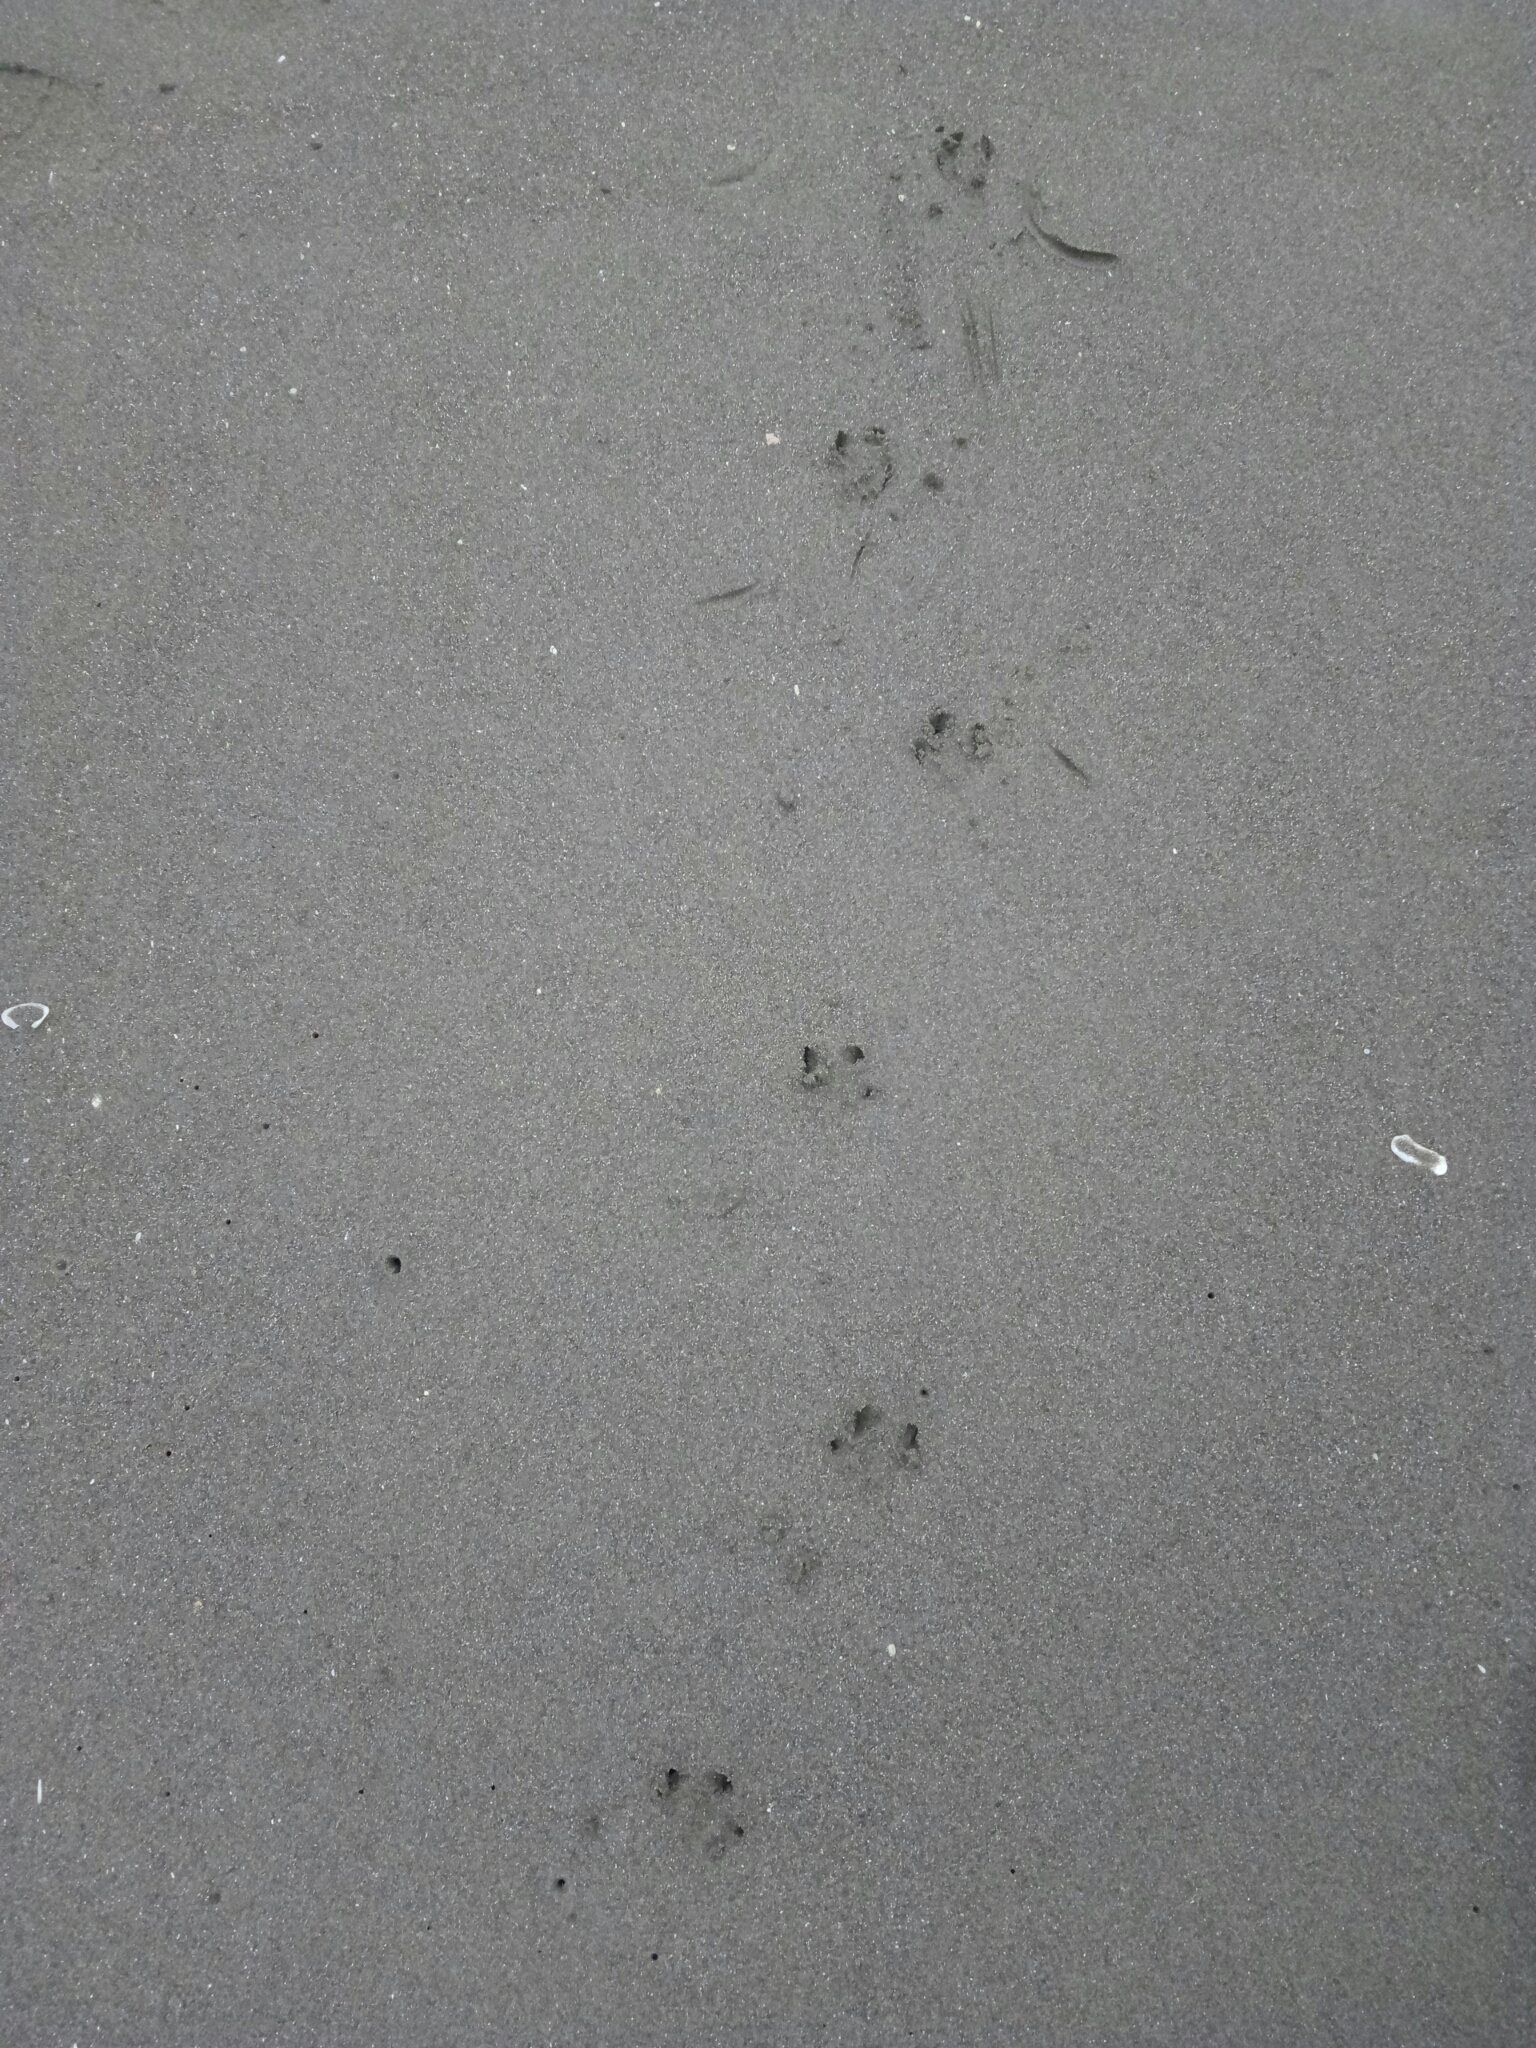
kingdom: Animalia
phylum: Chordata
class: Aves
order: Sphenisciformes
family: Spheniscidae
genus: Eudyptula
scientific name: Eudyptula minor
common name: Little penguin
